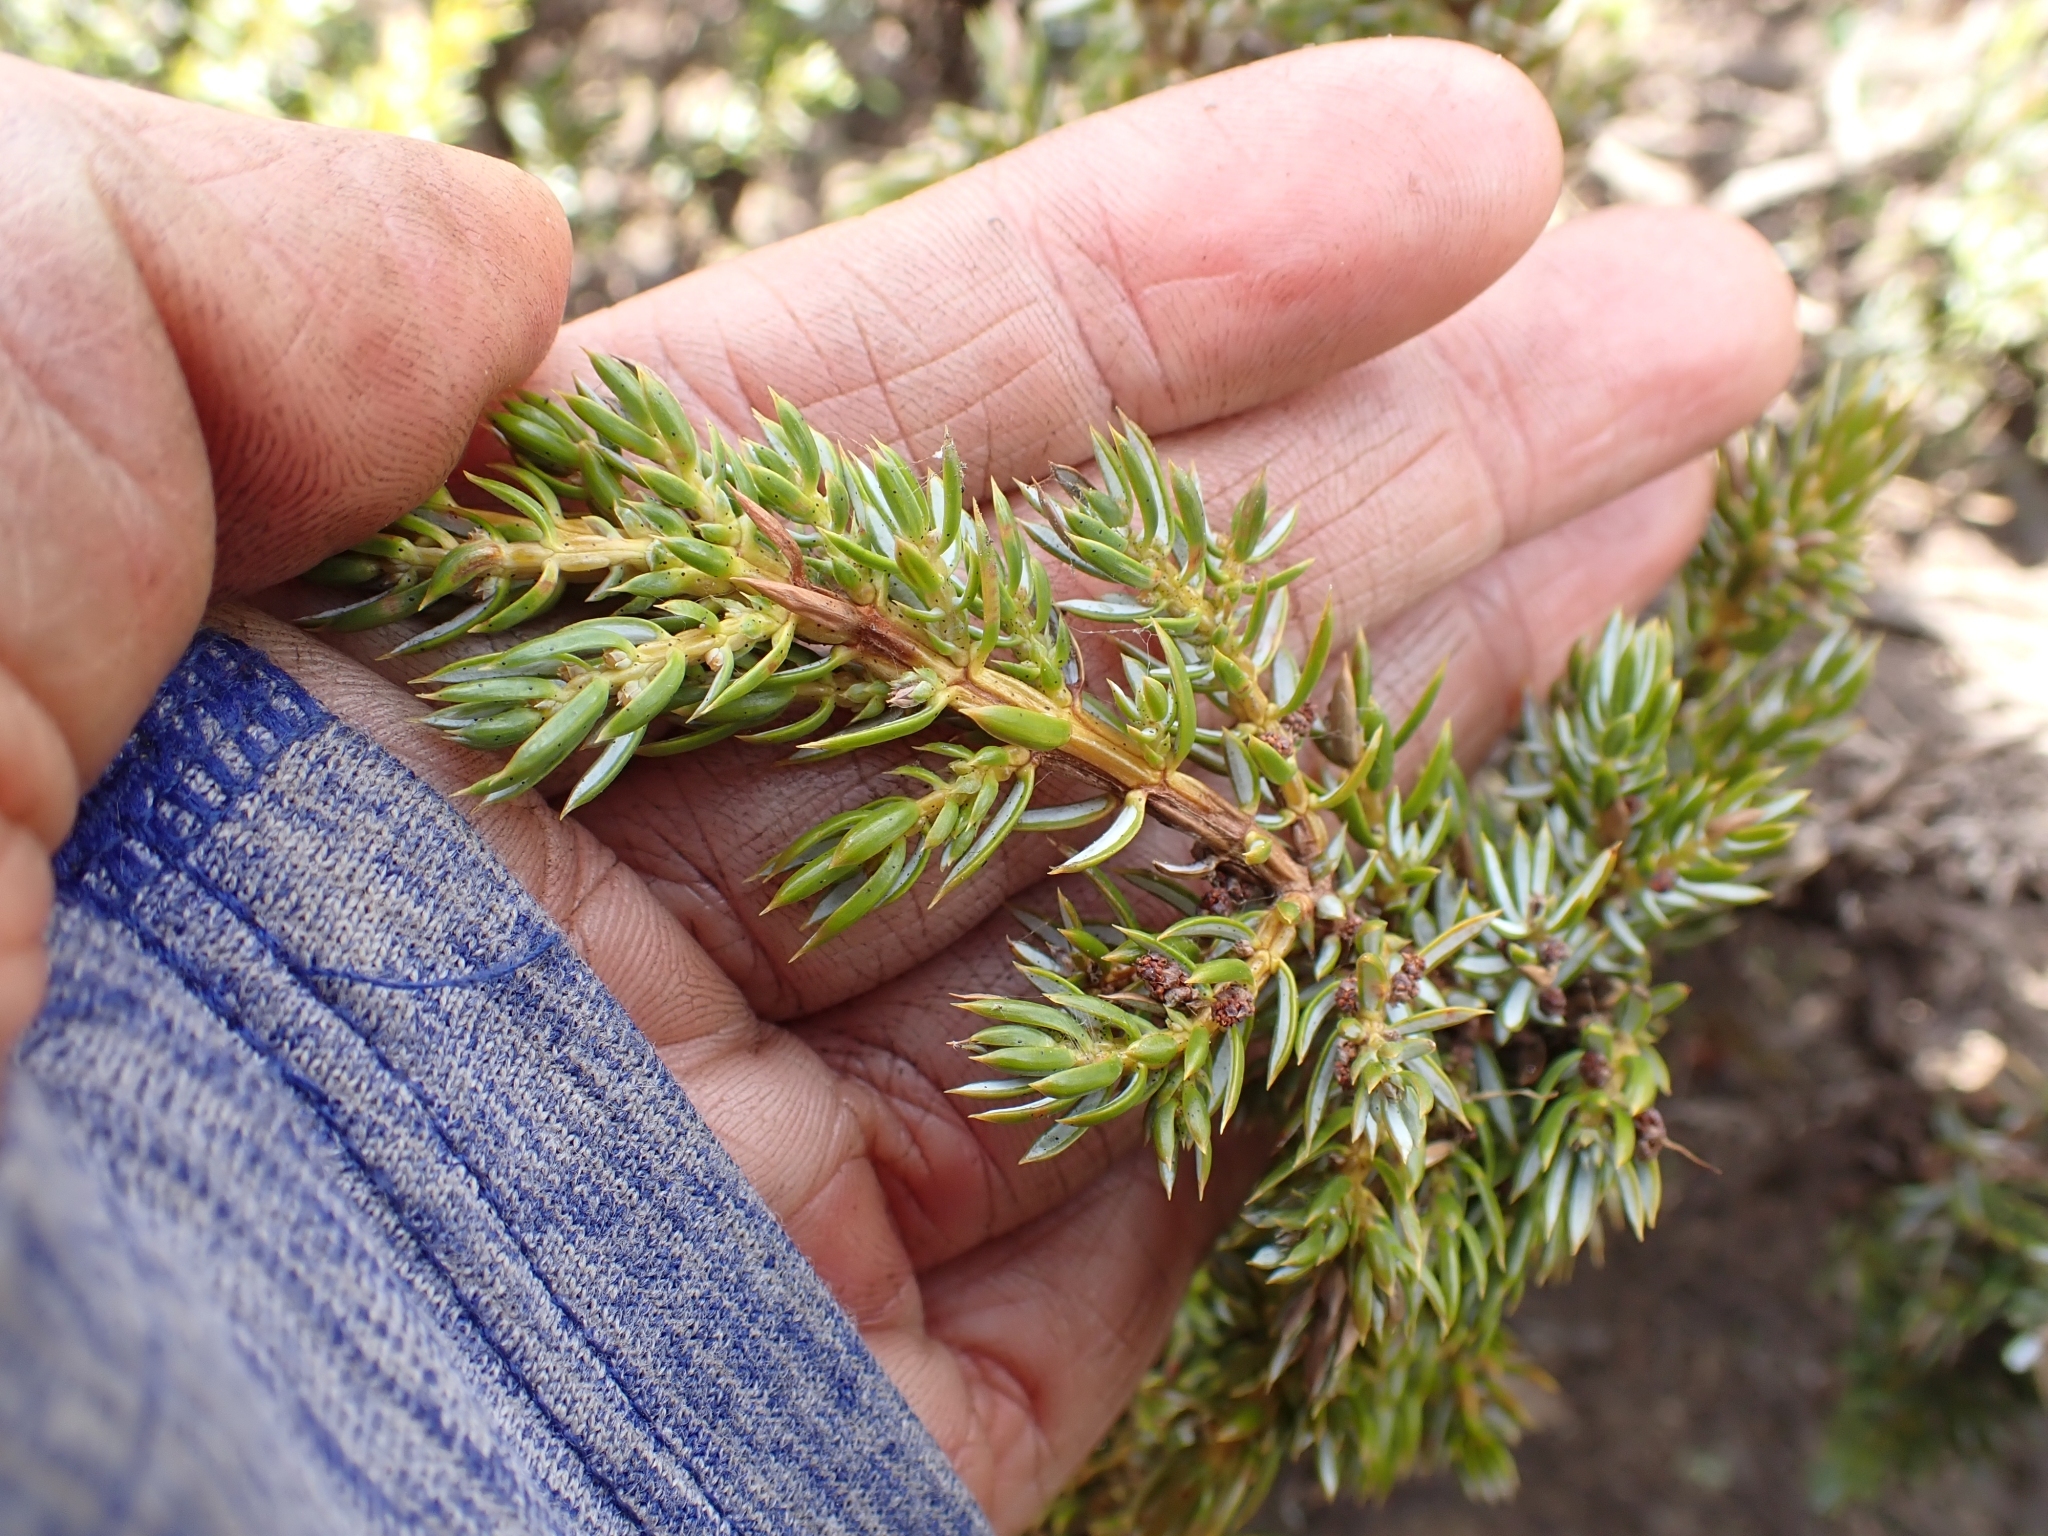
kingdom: Plantae
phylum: Tracheophyta
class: Pinopsida
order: Pinales
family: Cupressaceae
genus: Juniperus
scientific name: Juniperus communis
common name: Common juniper
